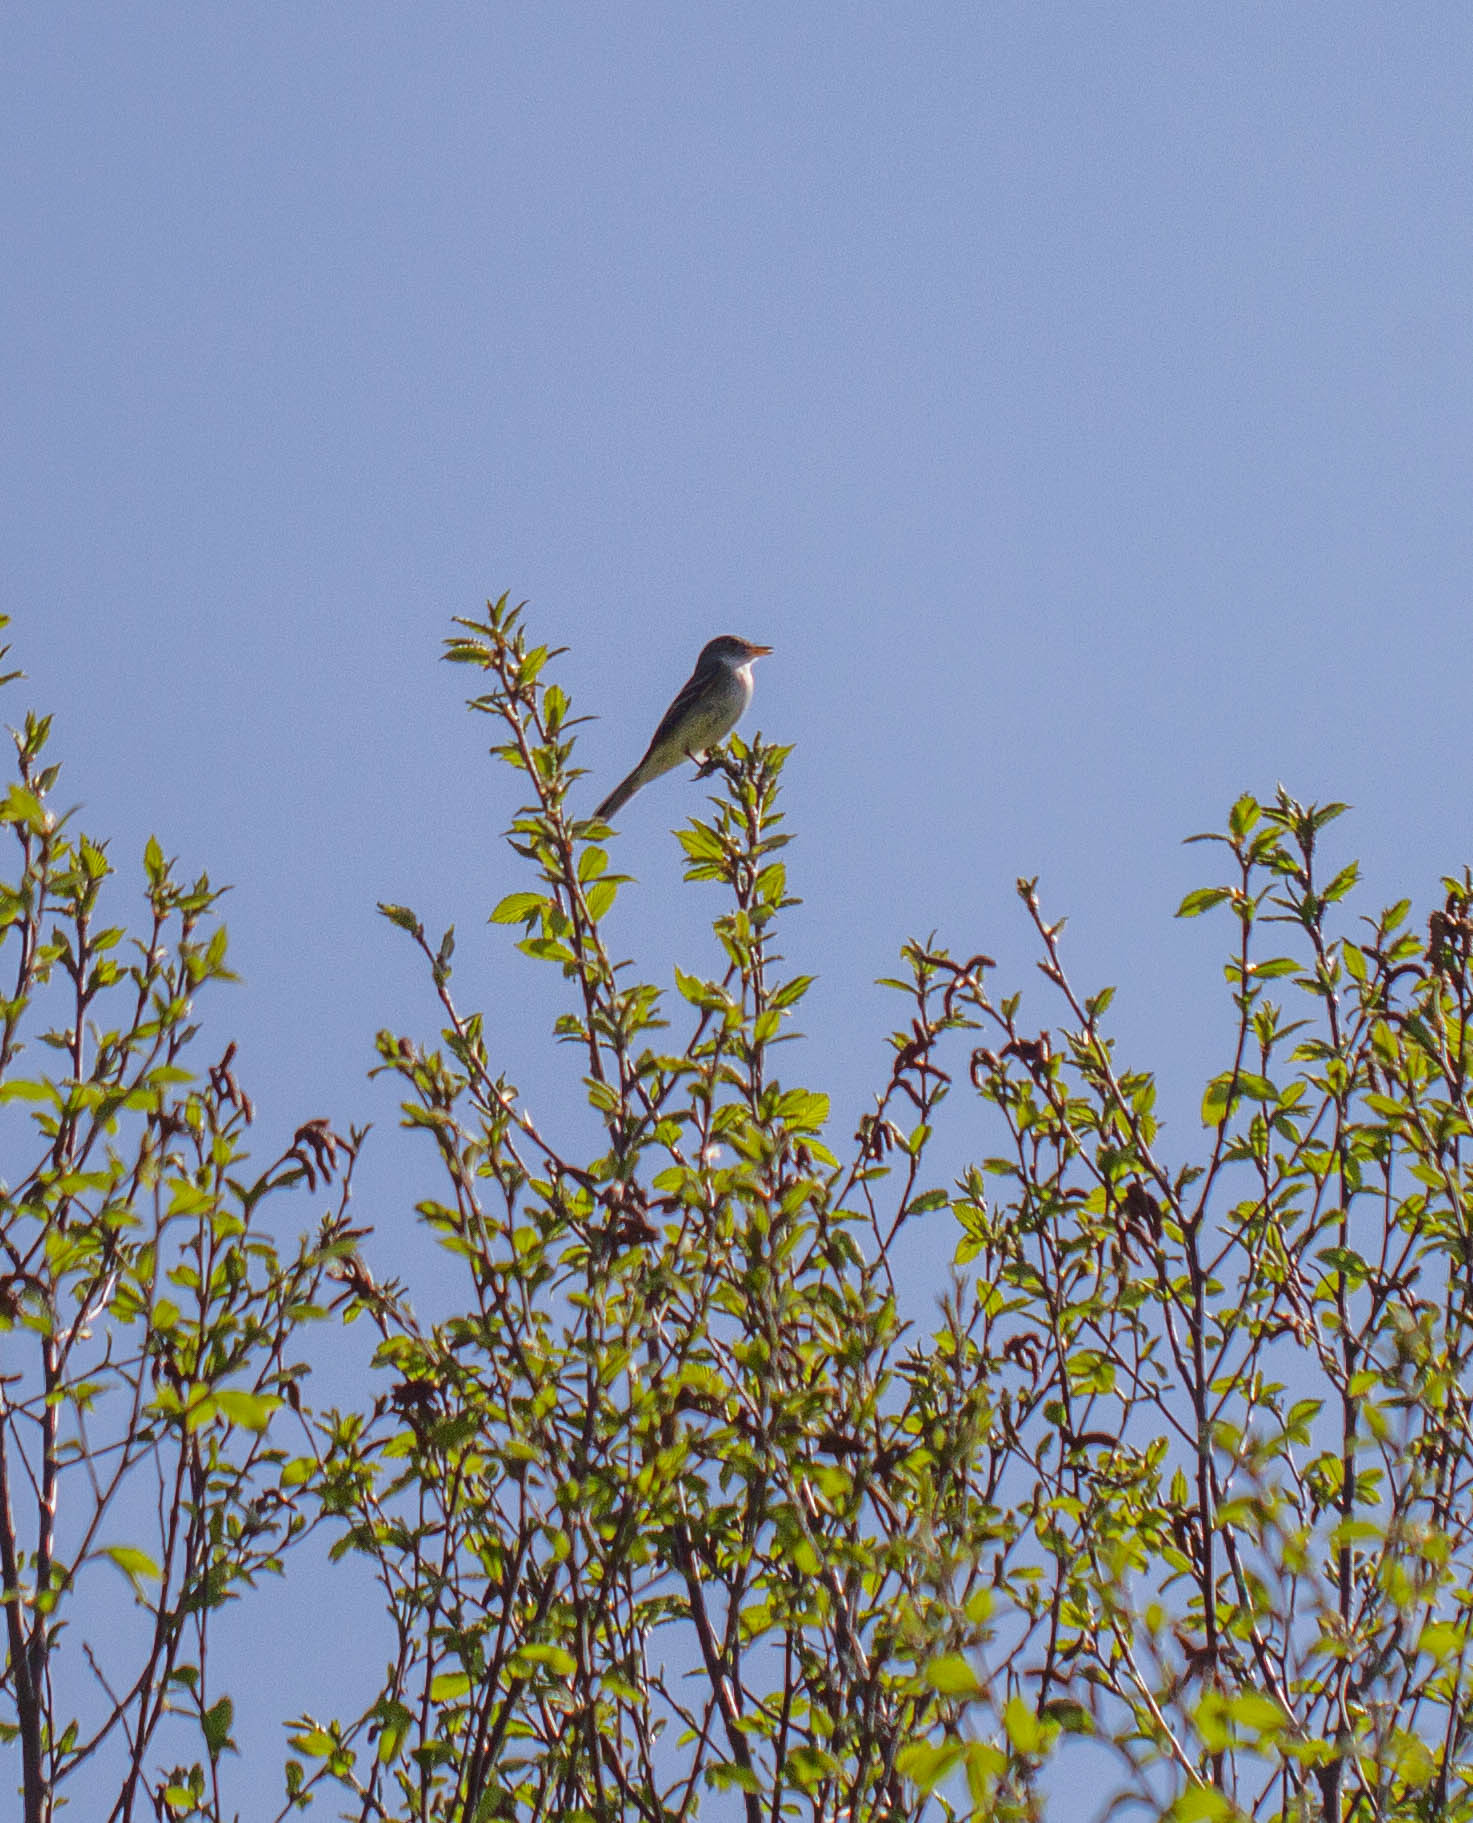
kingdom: Animalia
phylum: Chordata
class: Aves
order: Passeriformes
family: Tyrannidae
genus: Empidonax
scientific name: Empidonax alnorum
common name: Alder flycatcher
